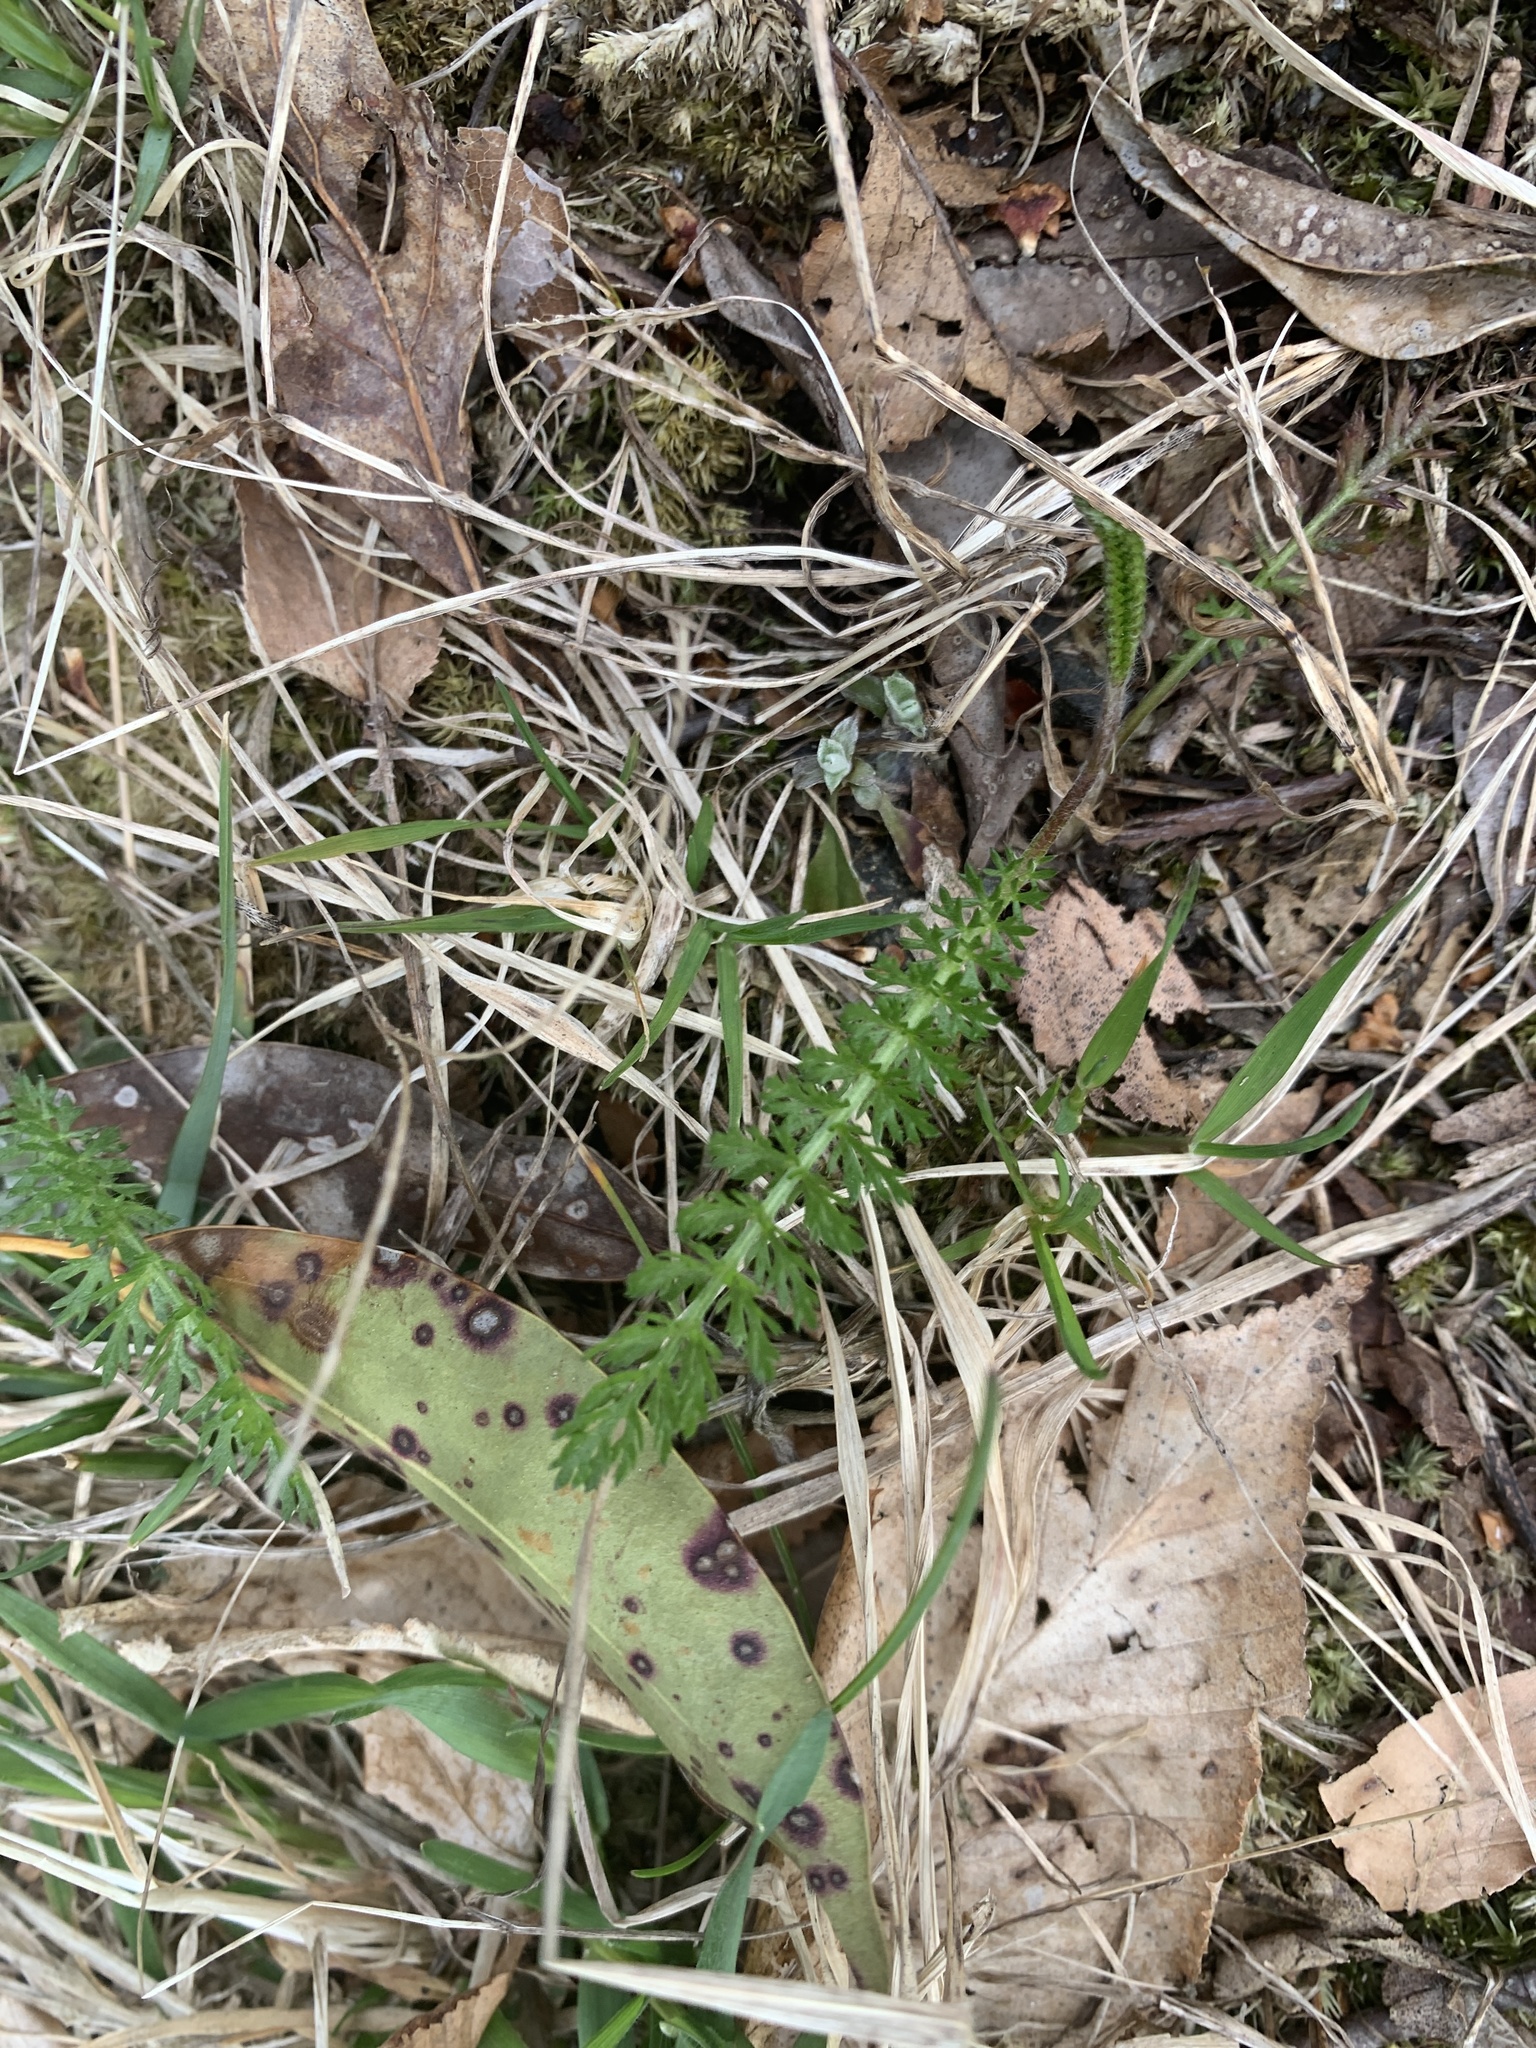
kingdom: Plantae
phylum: Tracheophyta
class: Magnoliopsida
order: Asterales
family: Asteraceae
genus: Achillea
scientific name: Achillea millefolium
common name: Yarrow
